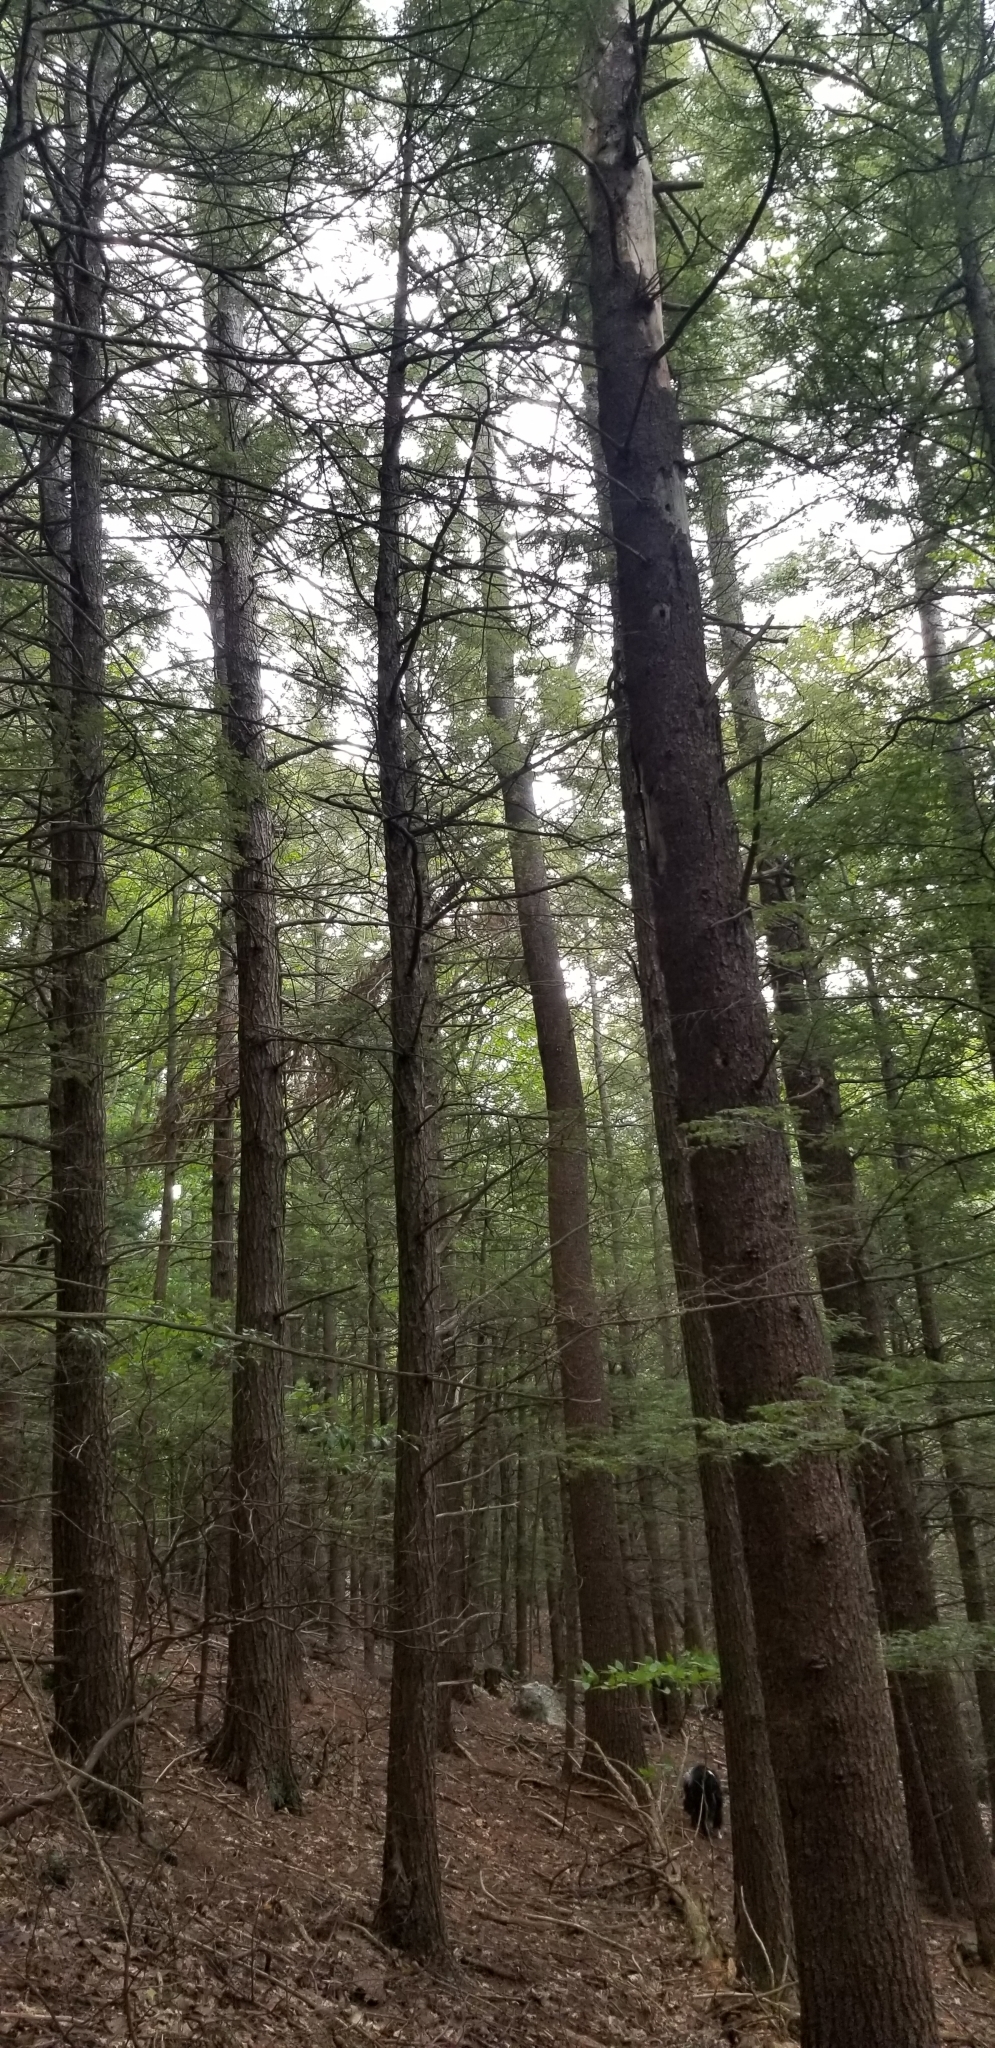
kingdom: Plantae
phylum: Tracheophyta
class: Pinopsida
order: Pinales
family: Pinaceae
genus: Pinus
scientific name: Pinus strobus
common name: Weymouth pine
